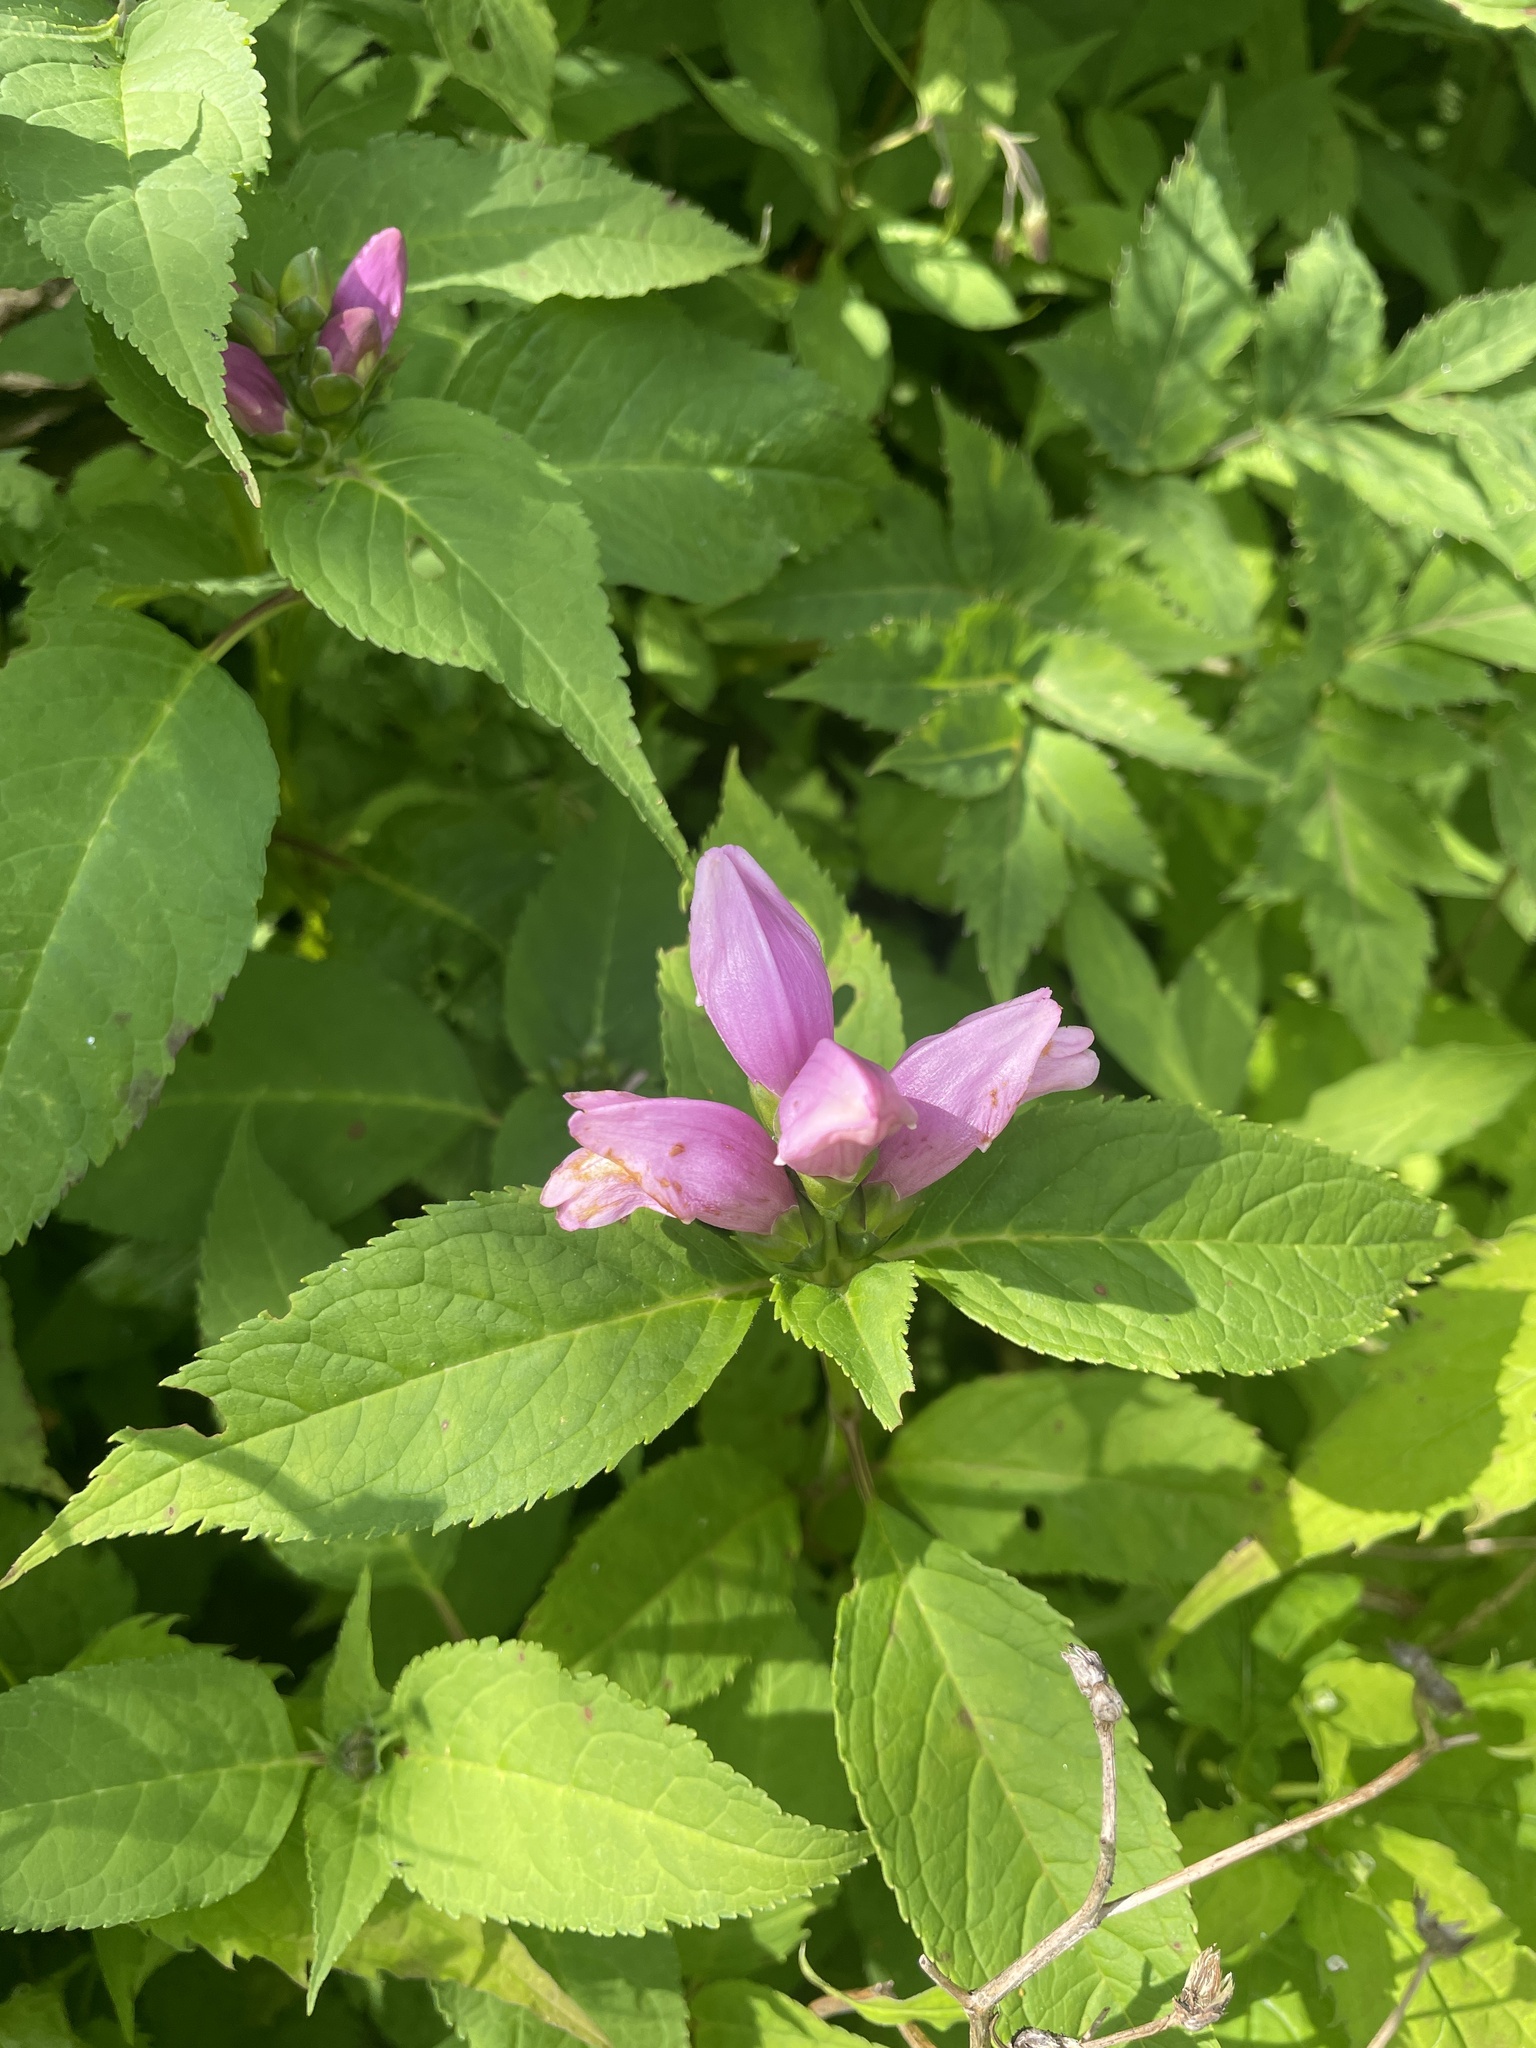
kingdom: Plantae
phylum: Tracheophyta
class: Magnoliopsida
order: Lamiales
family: Plantaginaceae
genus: Chelone
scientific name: Chelone lyonii
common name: Pink turtlehead
